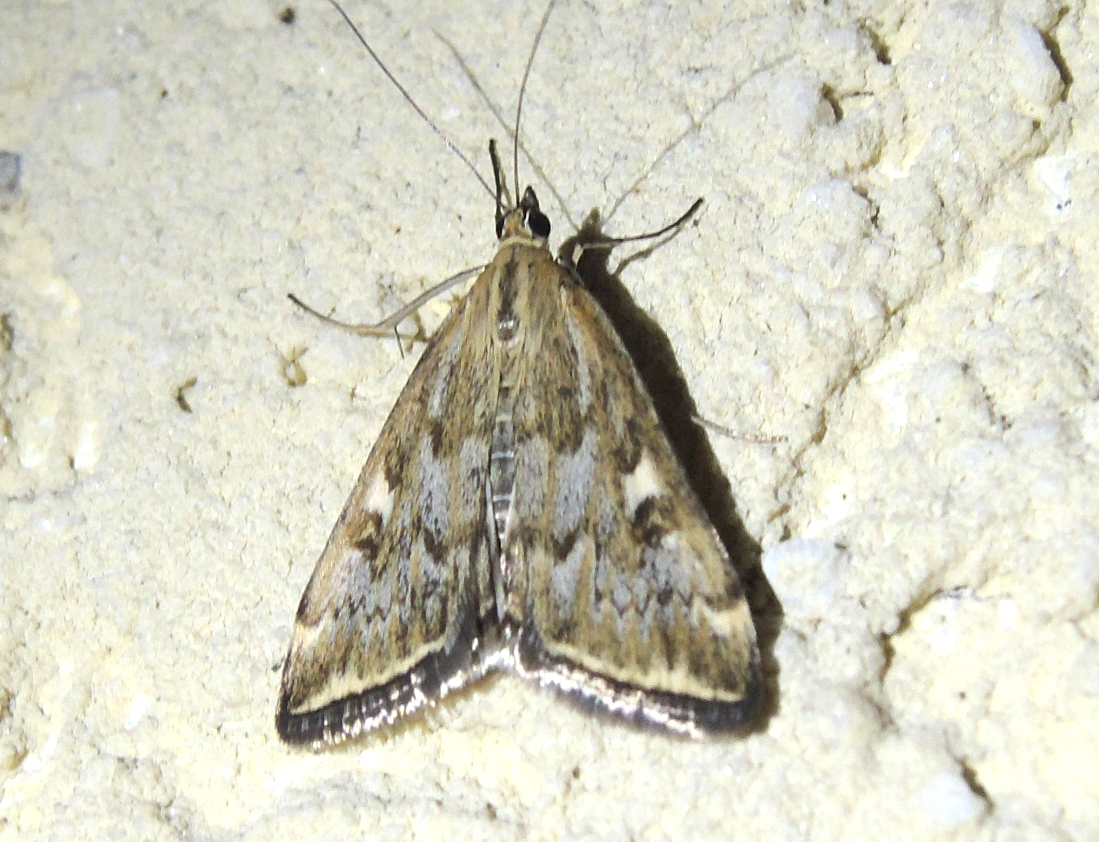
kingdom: Animalia
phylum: Arthropoda
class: Insecta
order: Lepidoptera
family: Crambidae
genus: Loxostege
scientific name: Loxostege sticticalis
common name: Crambid moth
